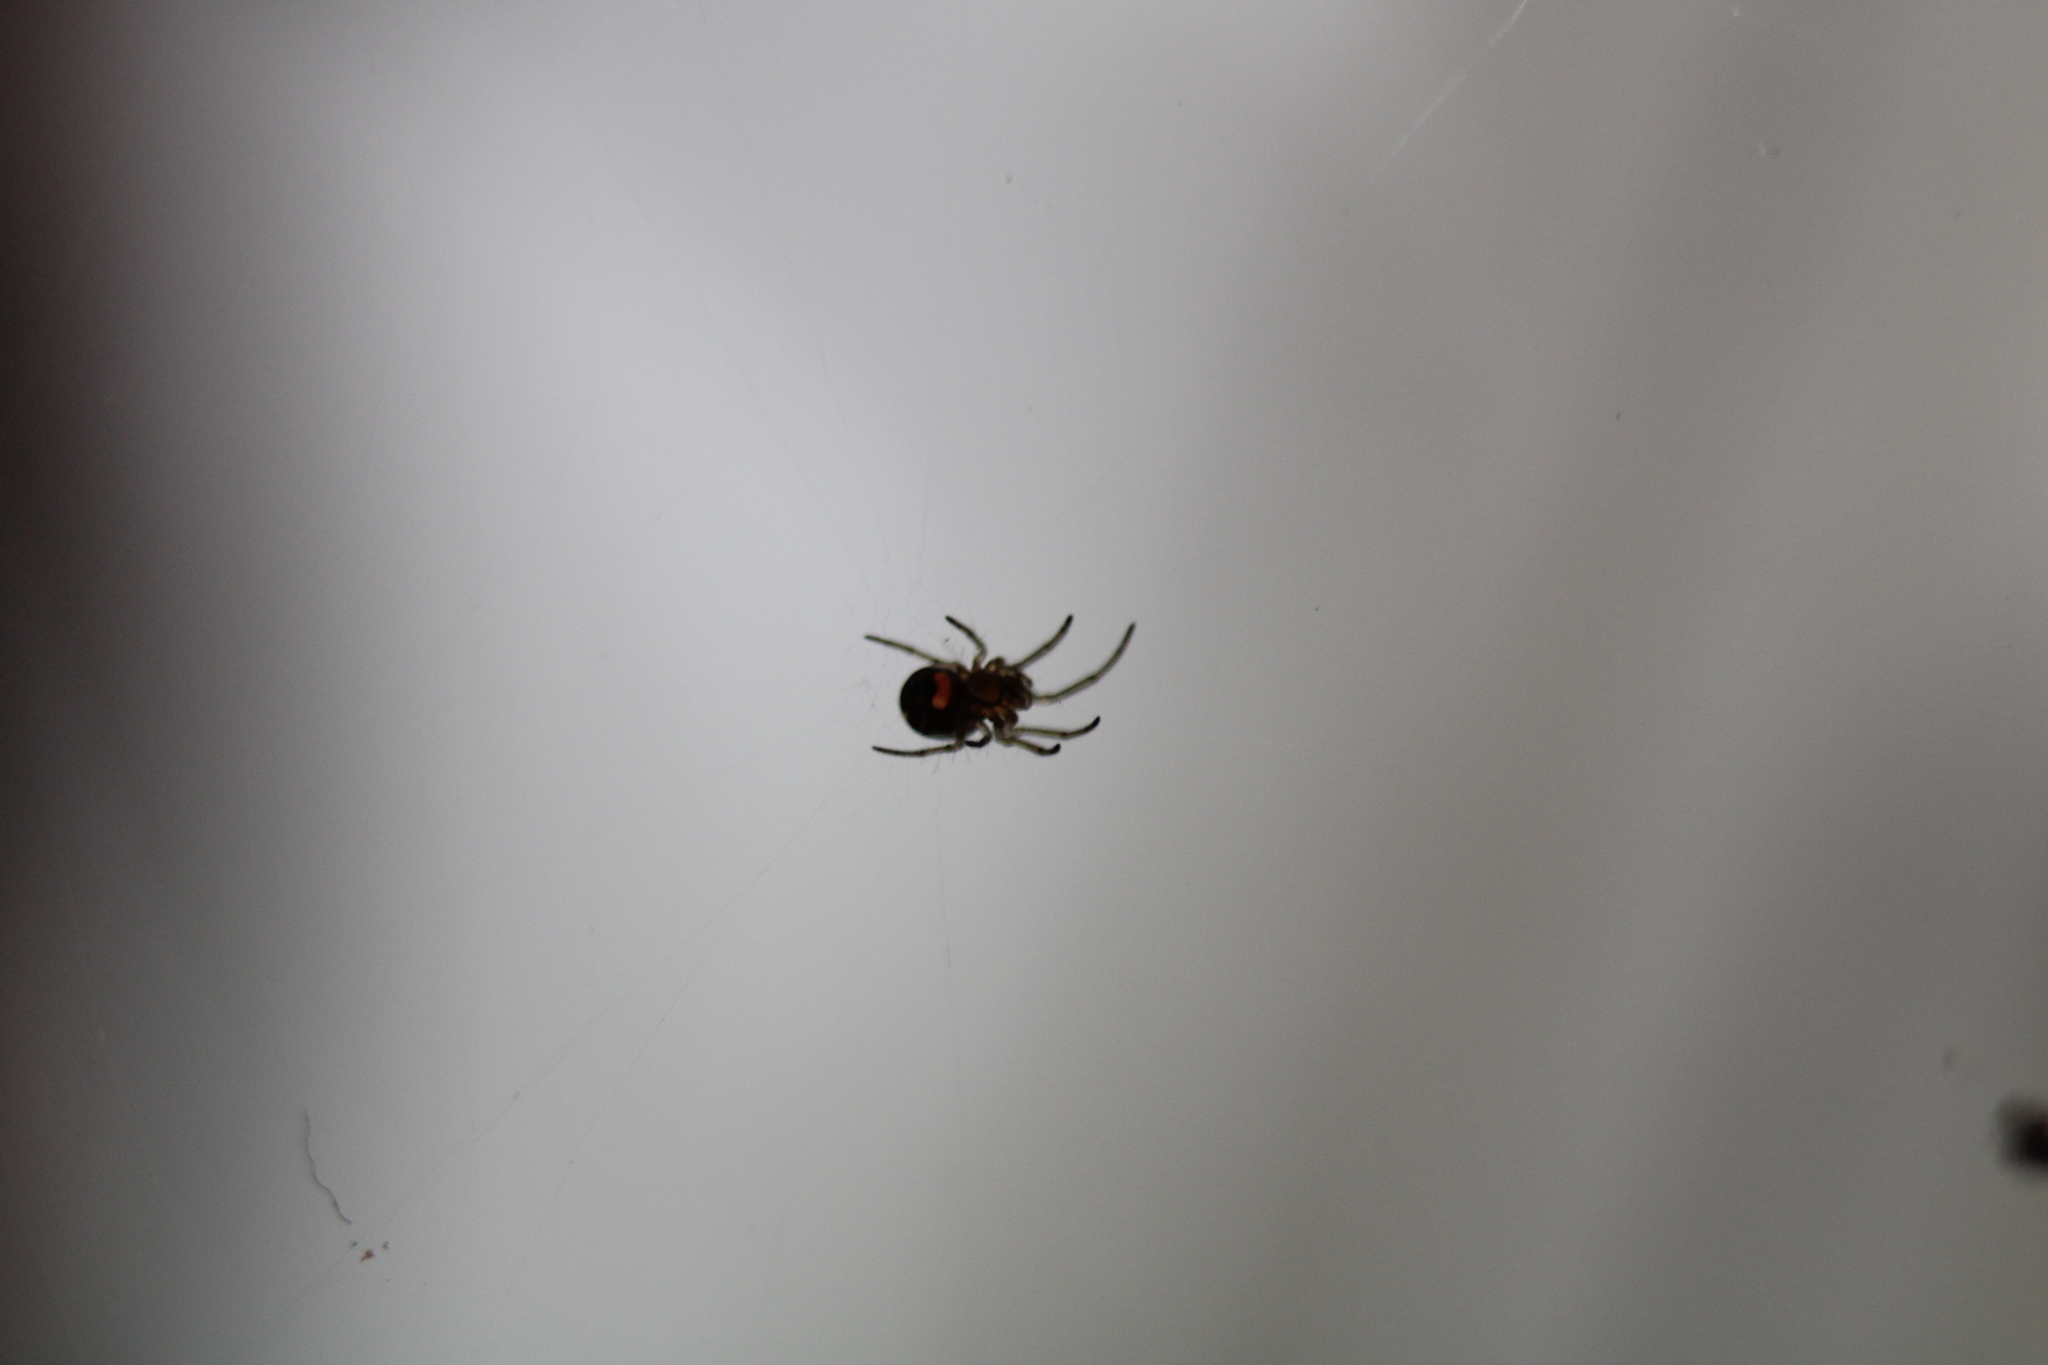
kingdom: Animalia
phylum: Arthropoda
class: Arachnida
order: Araneae
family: Tetragnathidae
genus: Leucauge
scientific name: Leucauge venusta
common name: Longjawed orb weavers
